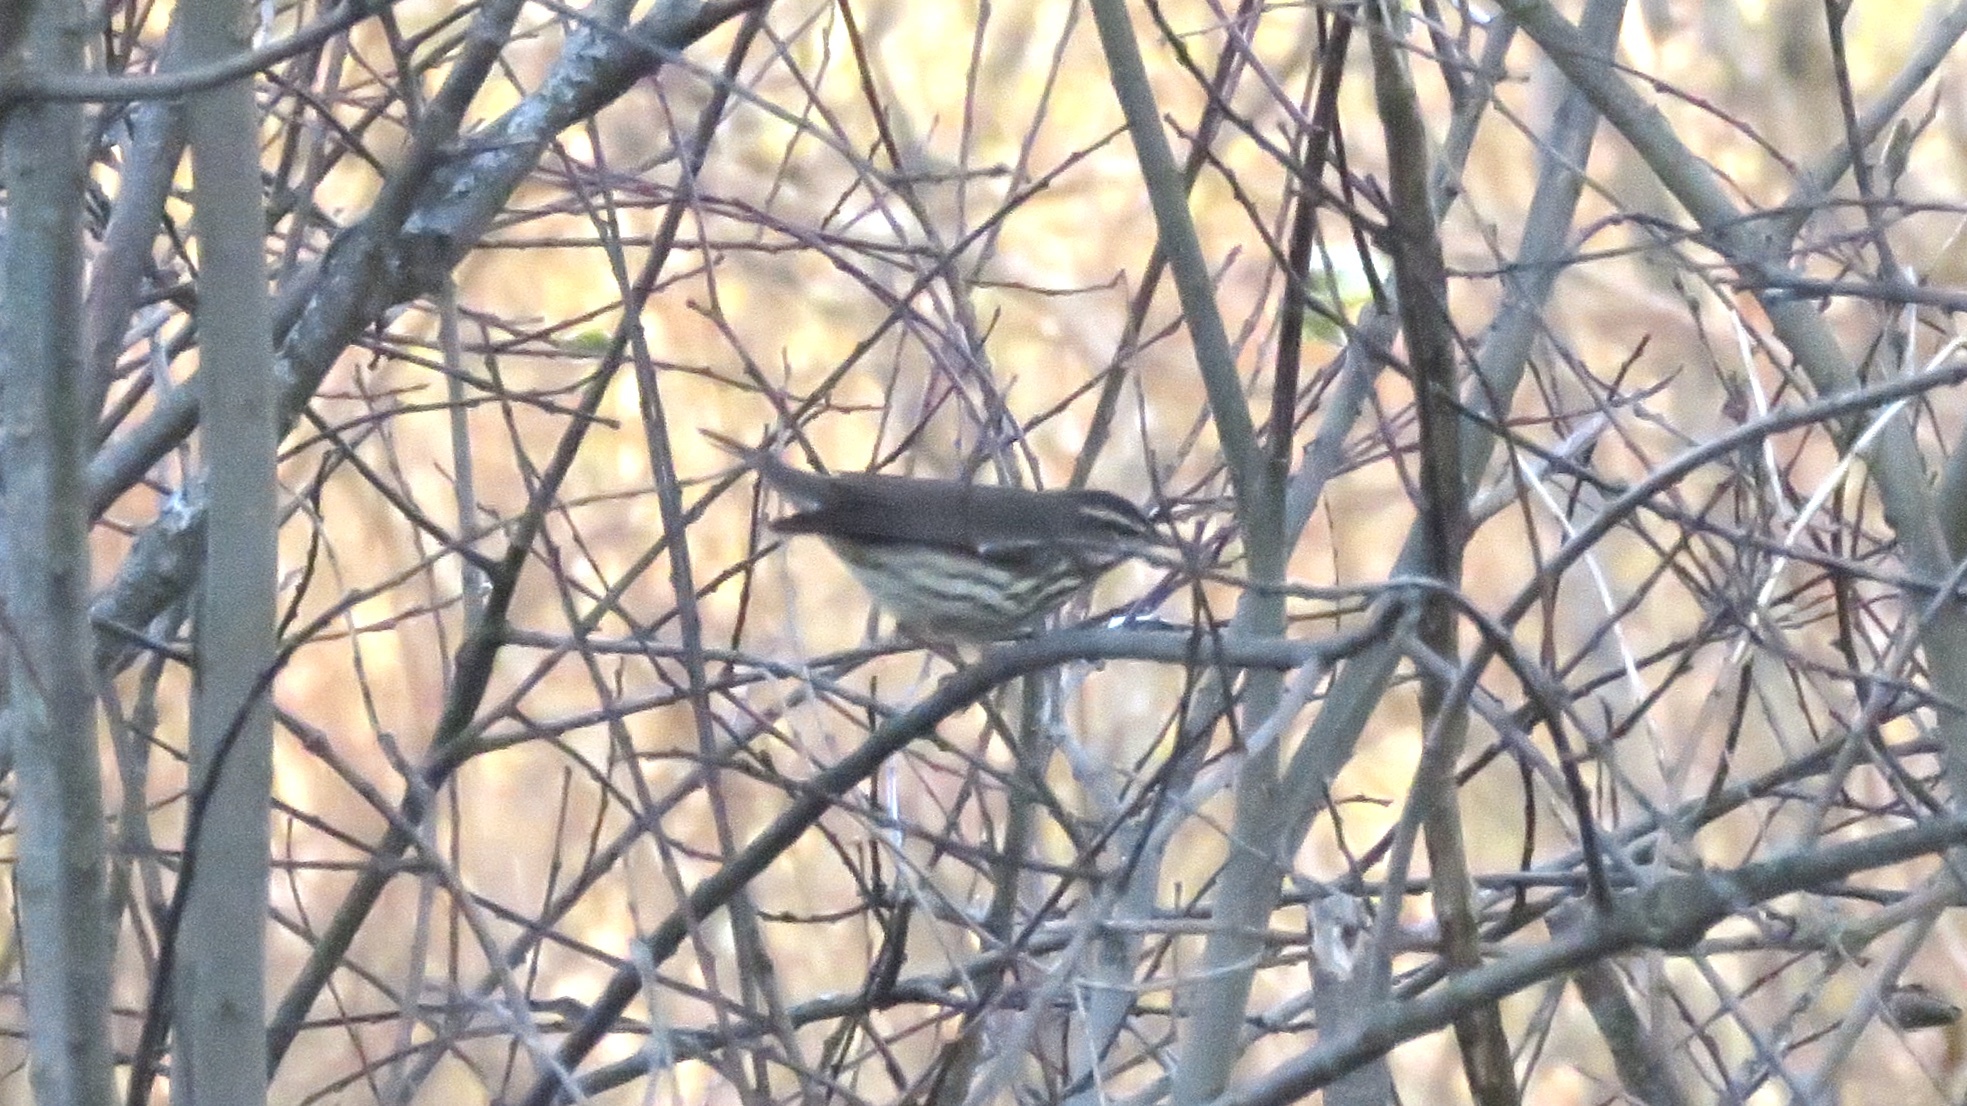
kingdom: Animalia
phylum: Chordata
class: Aves
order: Passeriformes
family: Parulidae
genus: Parkesia
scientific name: Parkesia noveboracensis
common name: Northern waterthrush
